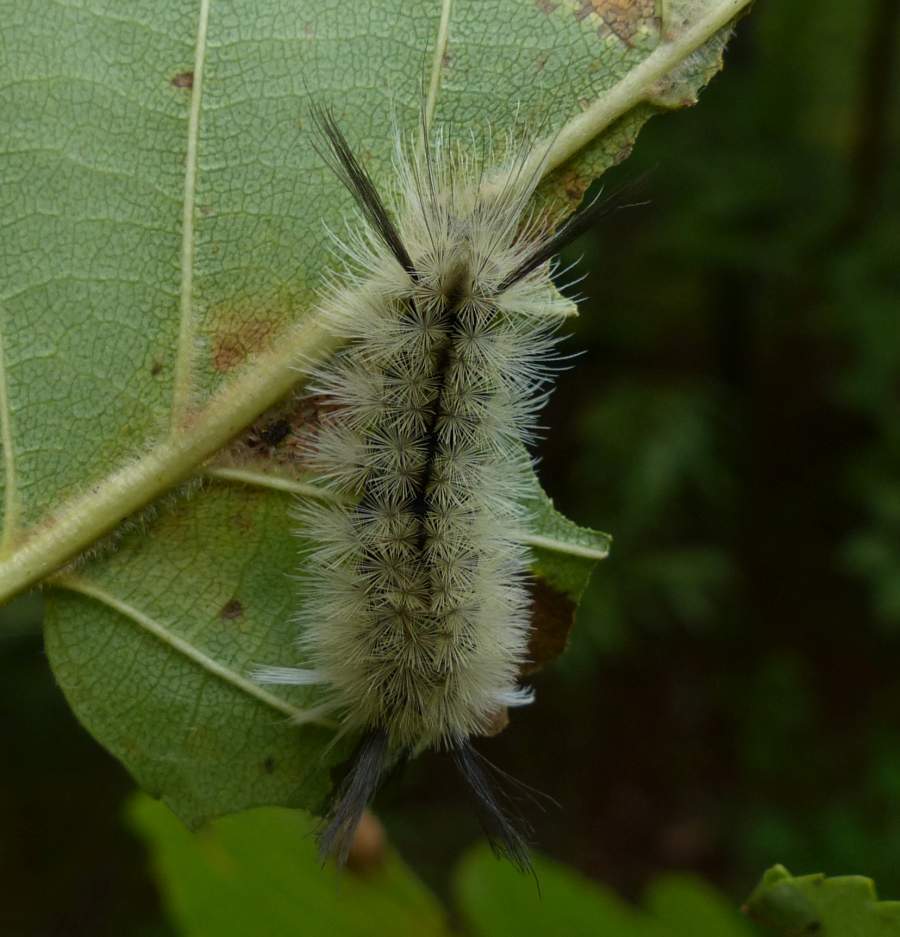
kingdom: Animalia
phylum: Arthropoda
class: Insecta
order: Lepidoptera
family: Erebidae
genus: Halysidota
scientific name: Halysidota tessellaris
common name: Banded tussock moth
